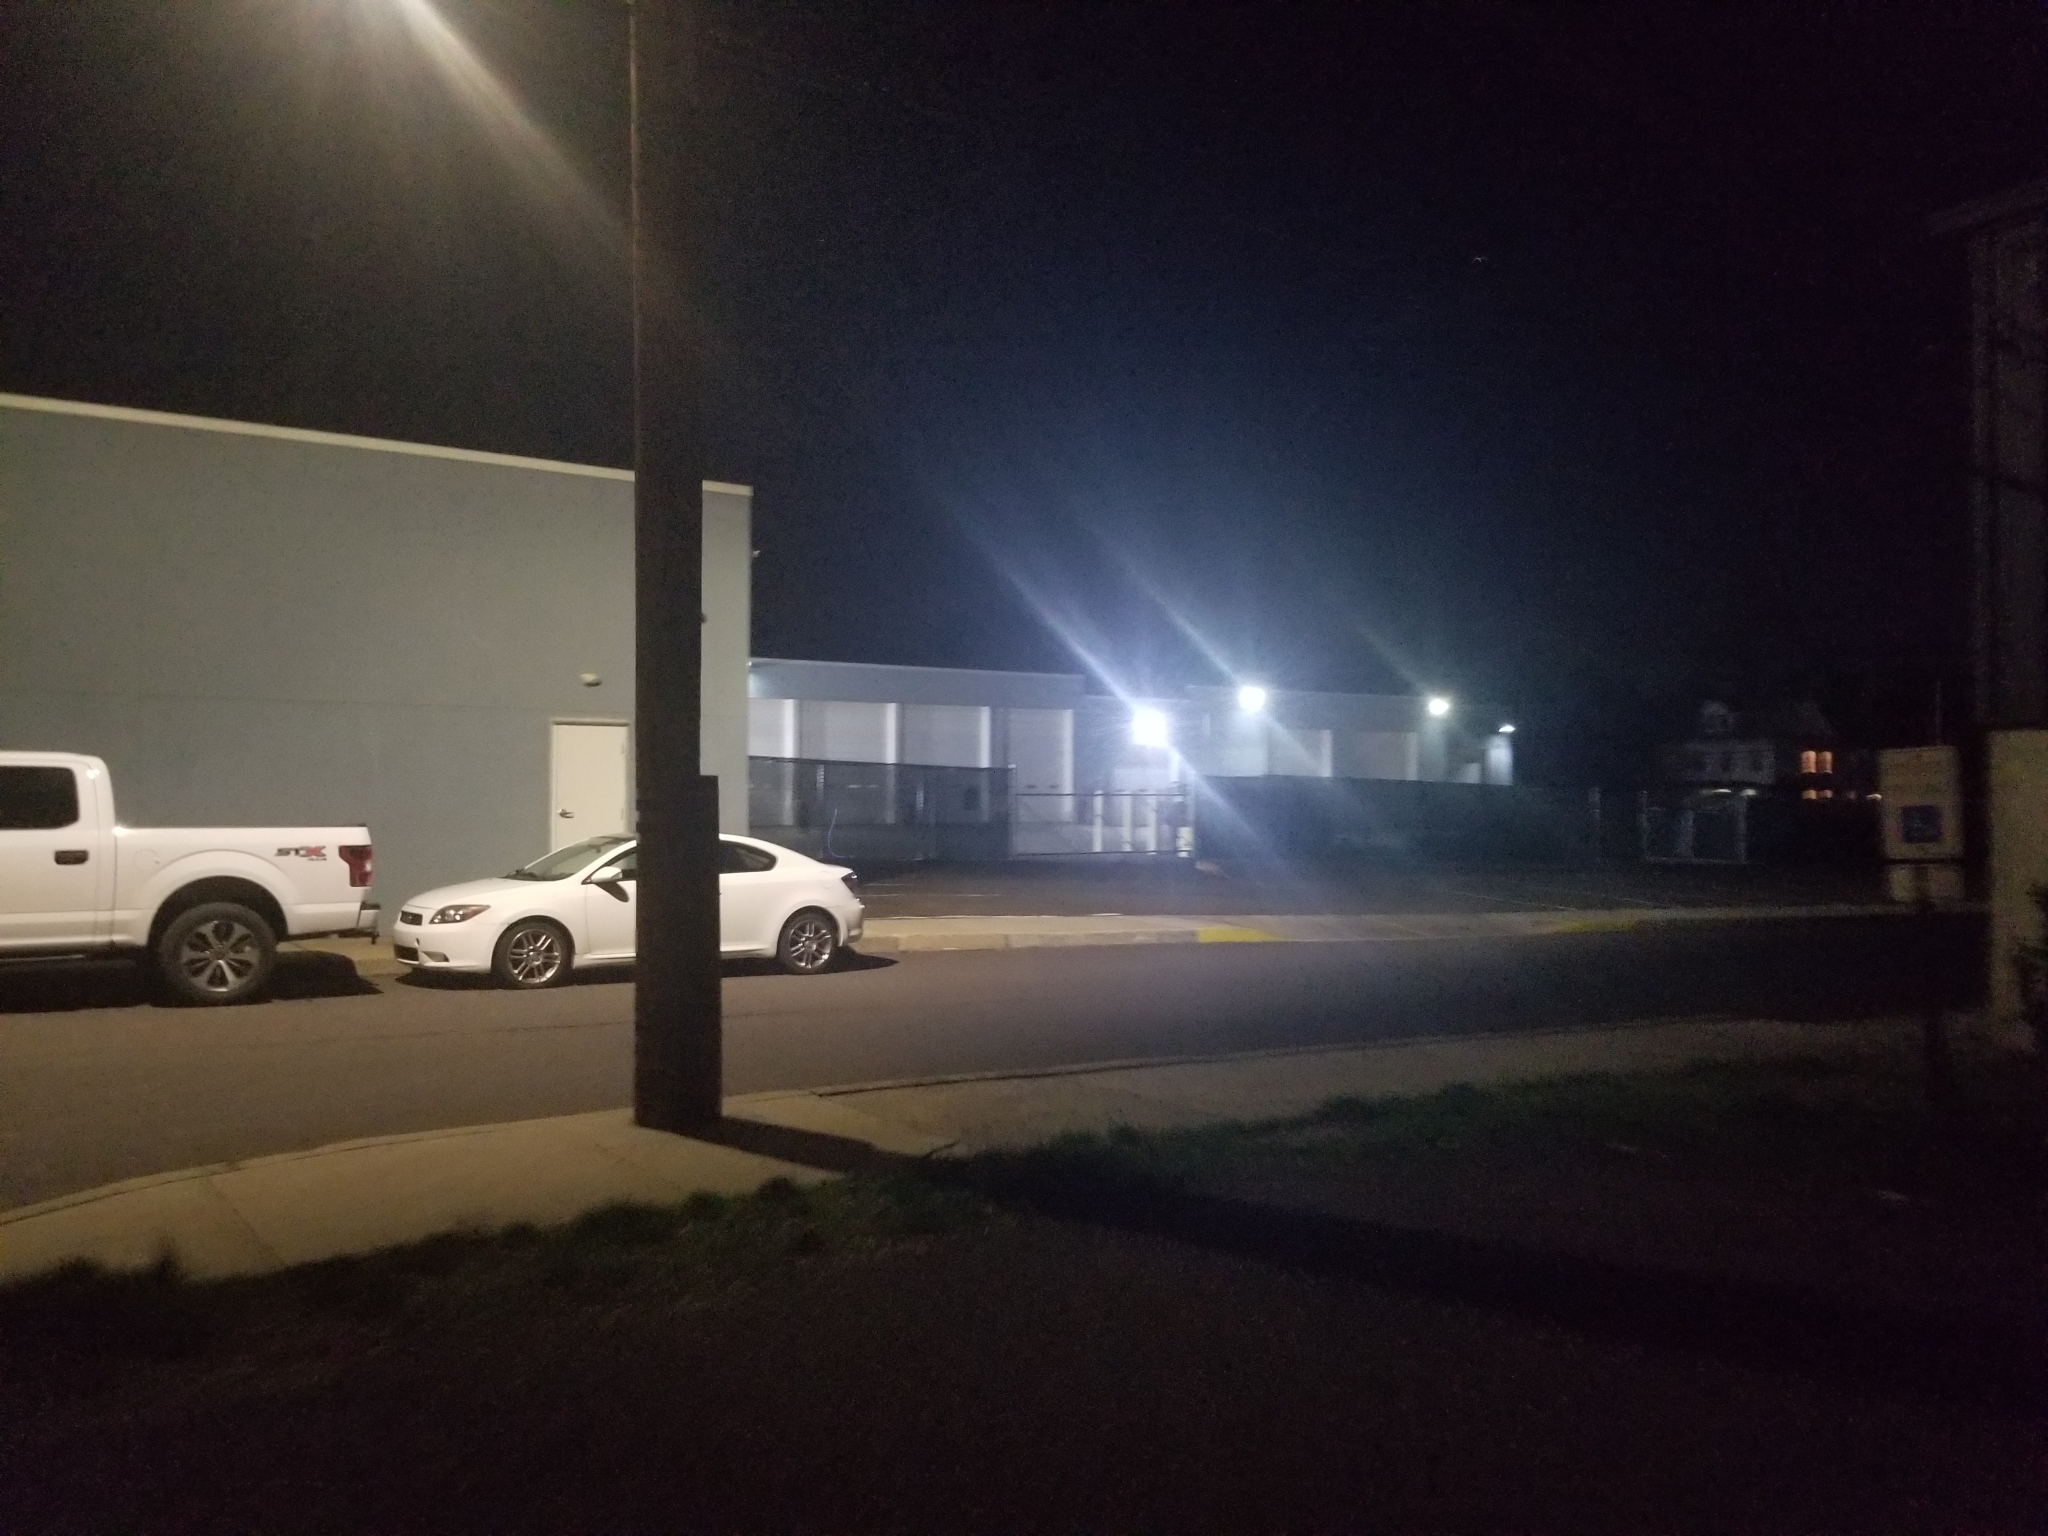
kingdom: Animalia
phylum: Chordata
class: Mammalia
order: Carnivora
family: Canidae
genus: Vulpes
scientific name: Vulpes vulpes
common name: Red fox
